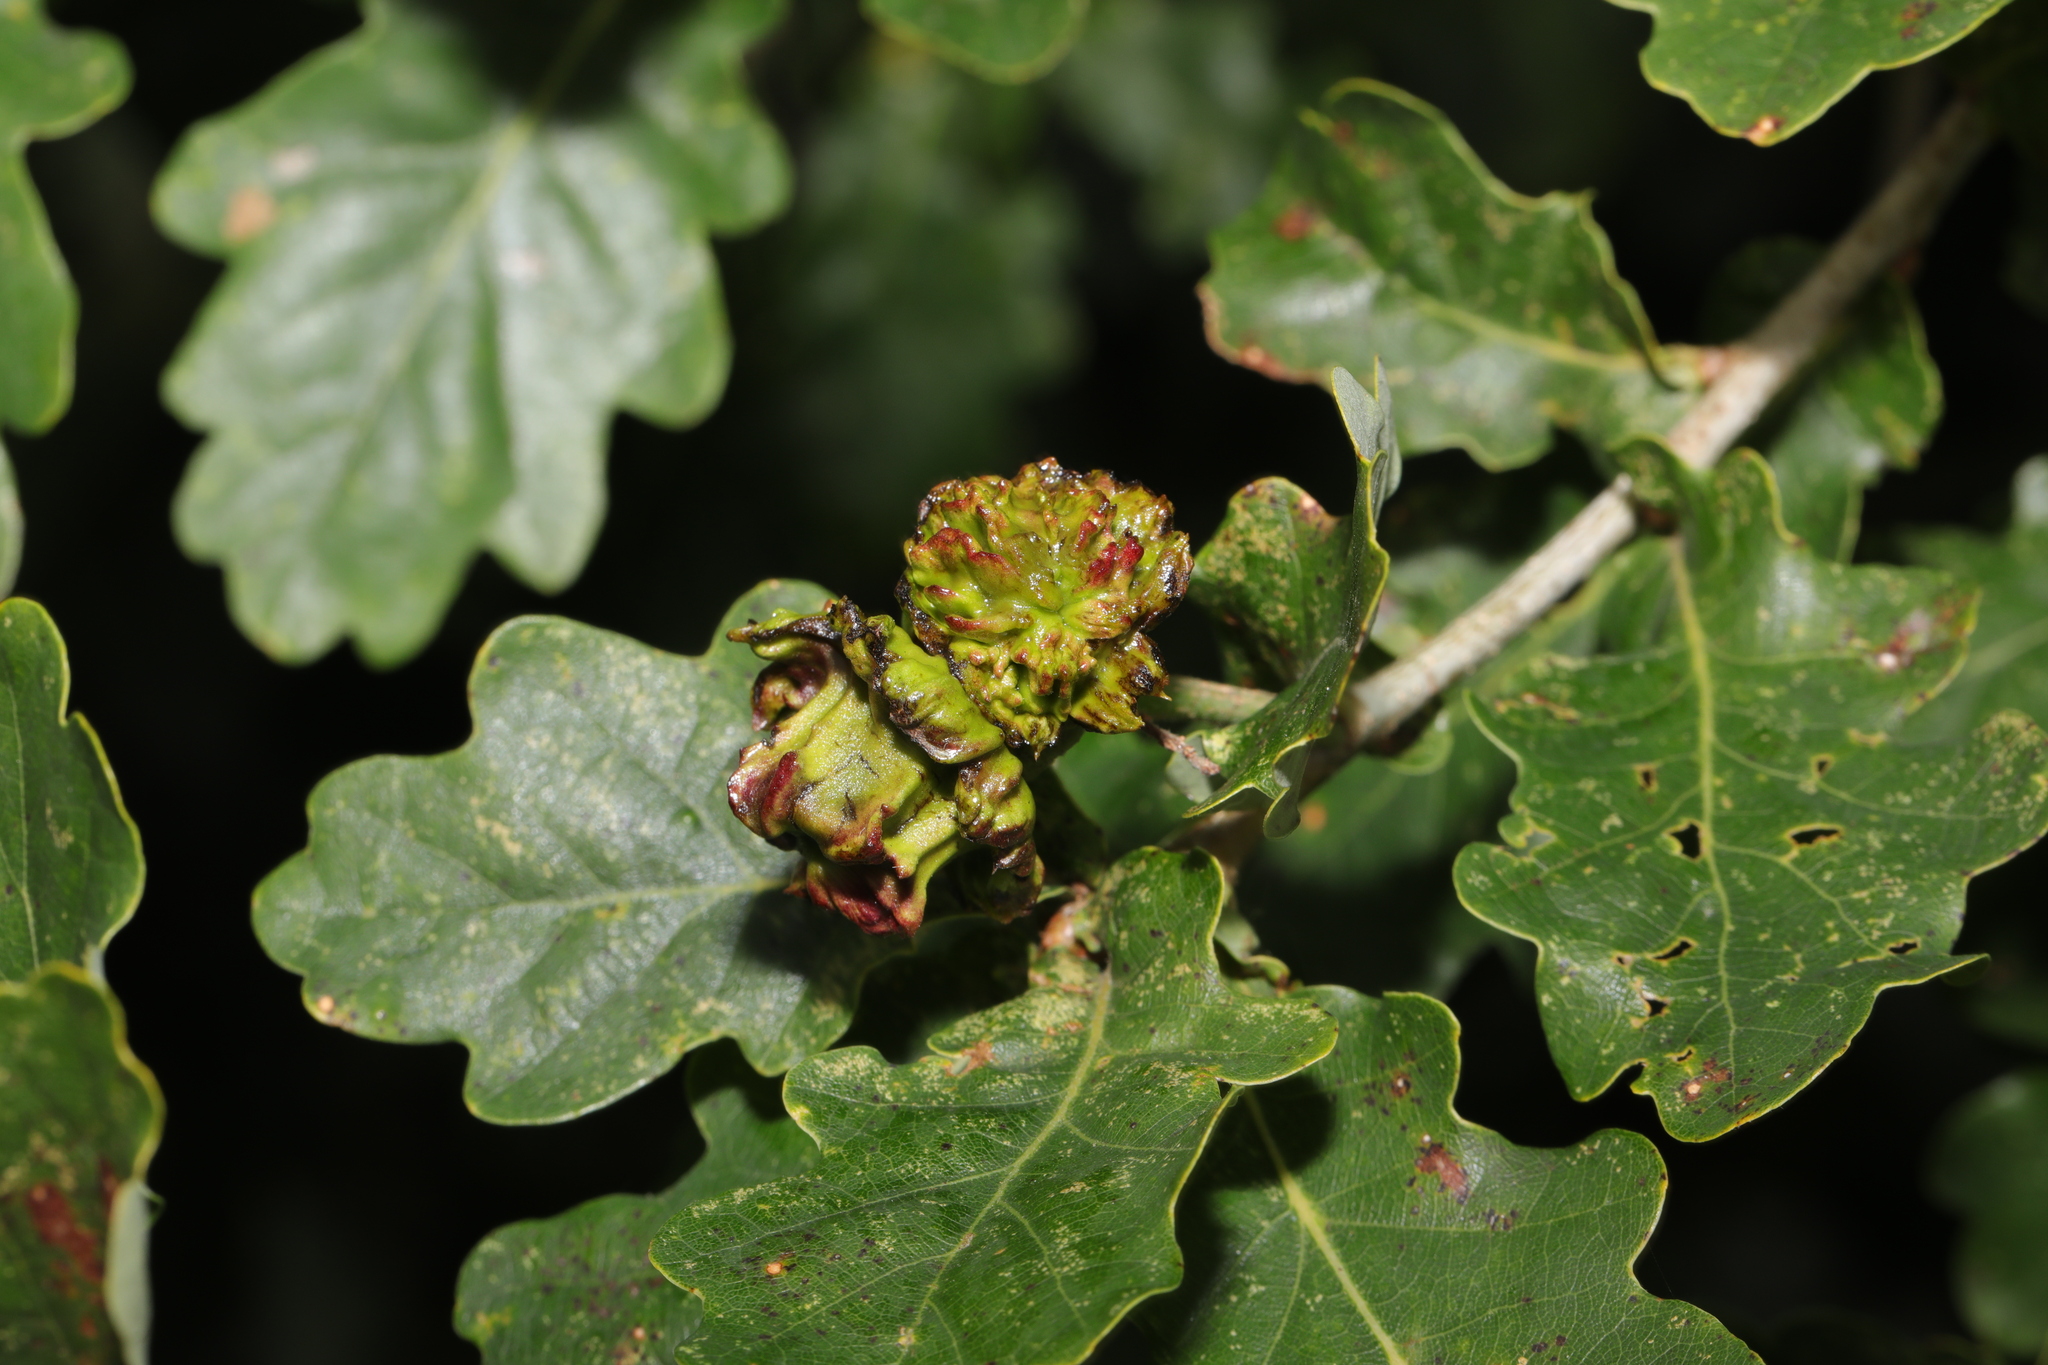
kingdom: Animalia
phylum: Arthropoda
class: Insecta
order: Hymenoptera
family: Cynipidae
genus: Andricus
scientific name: Andricus quercuscalicis
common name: Knopper gall
